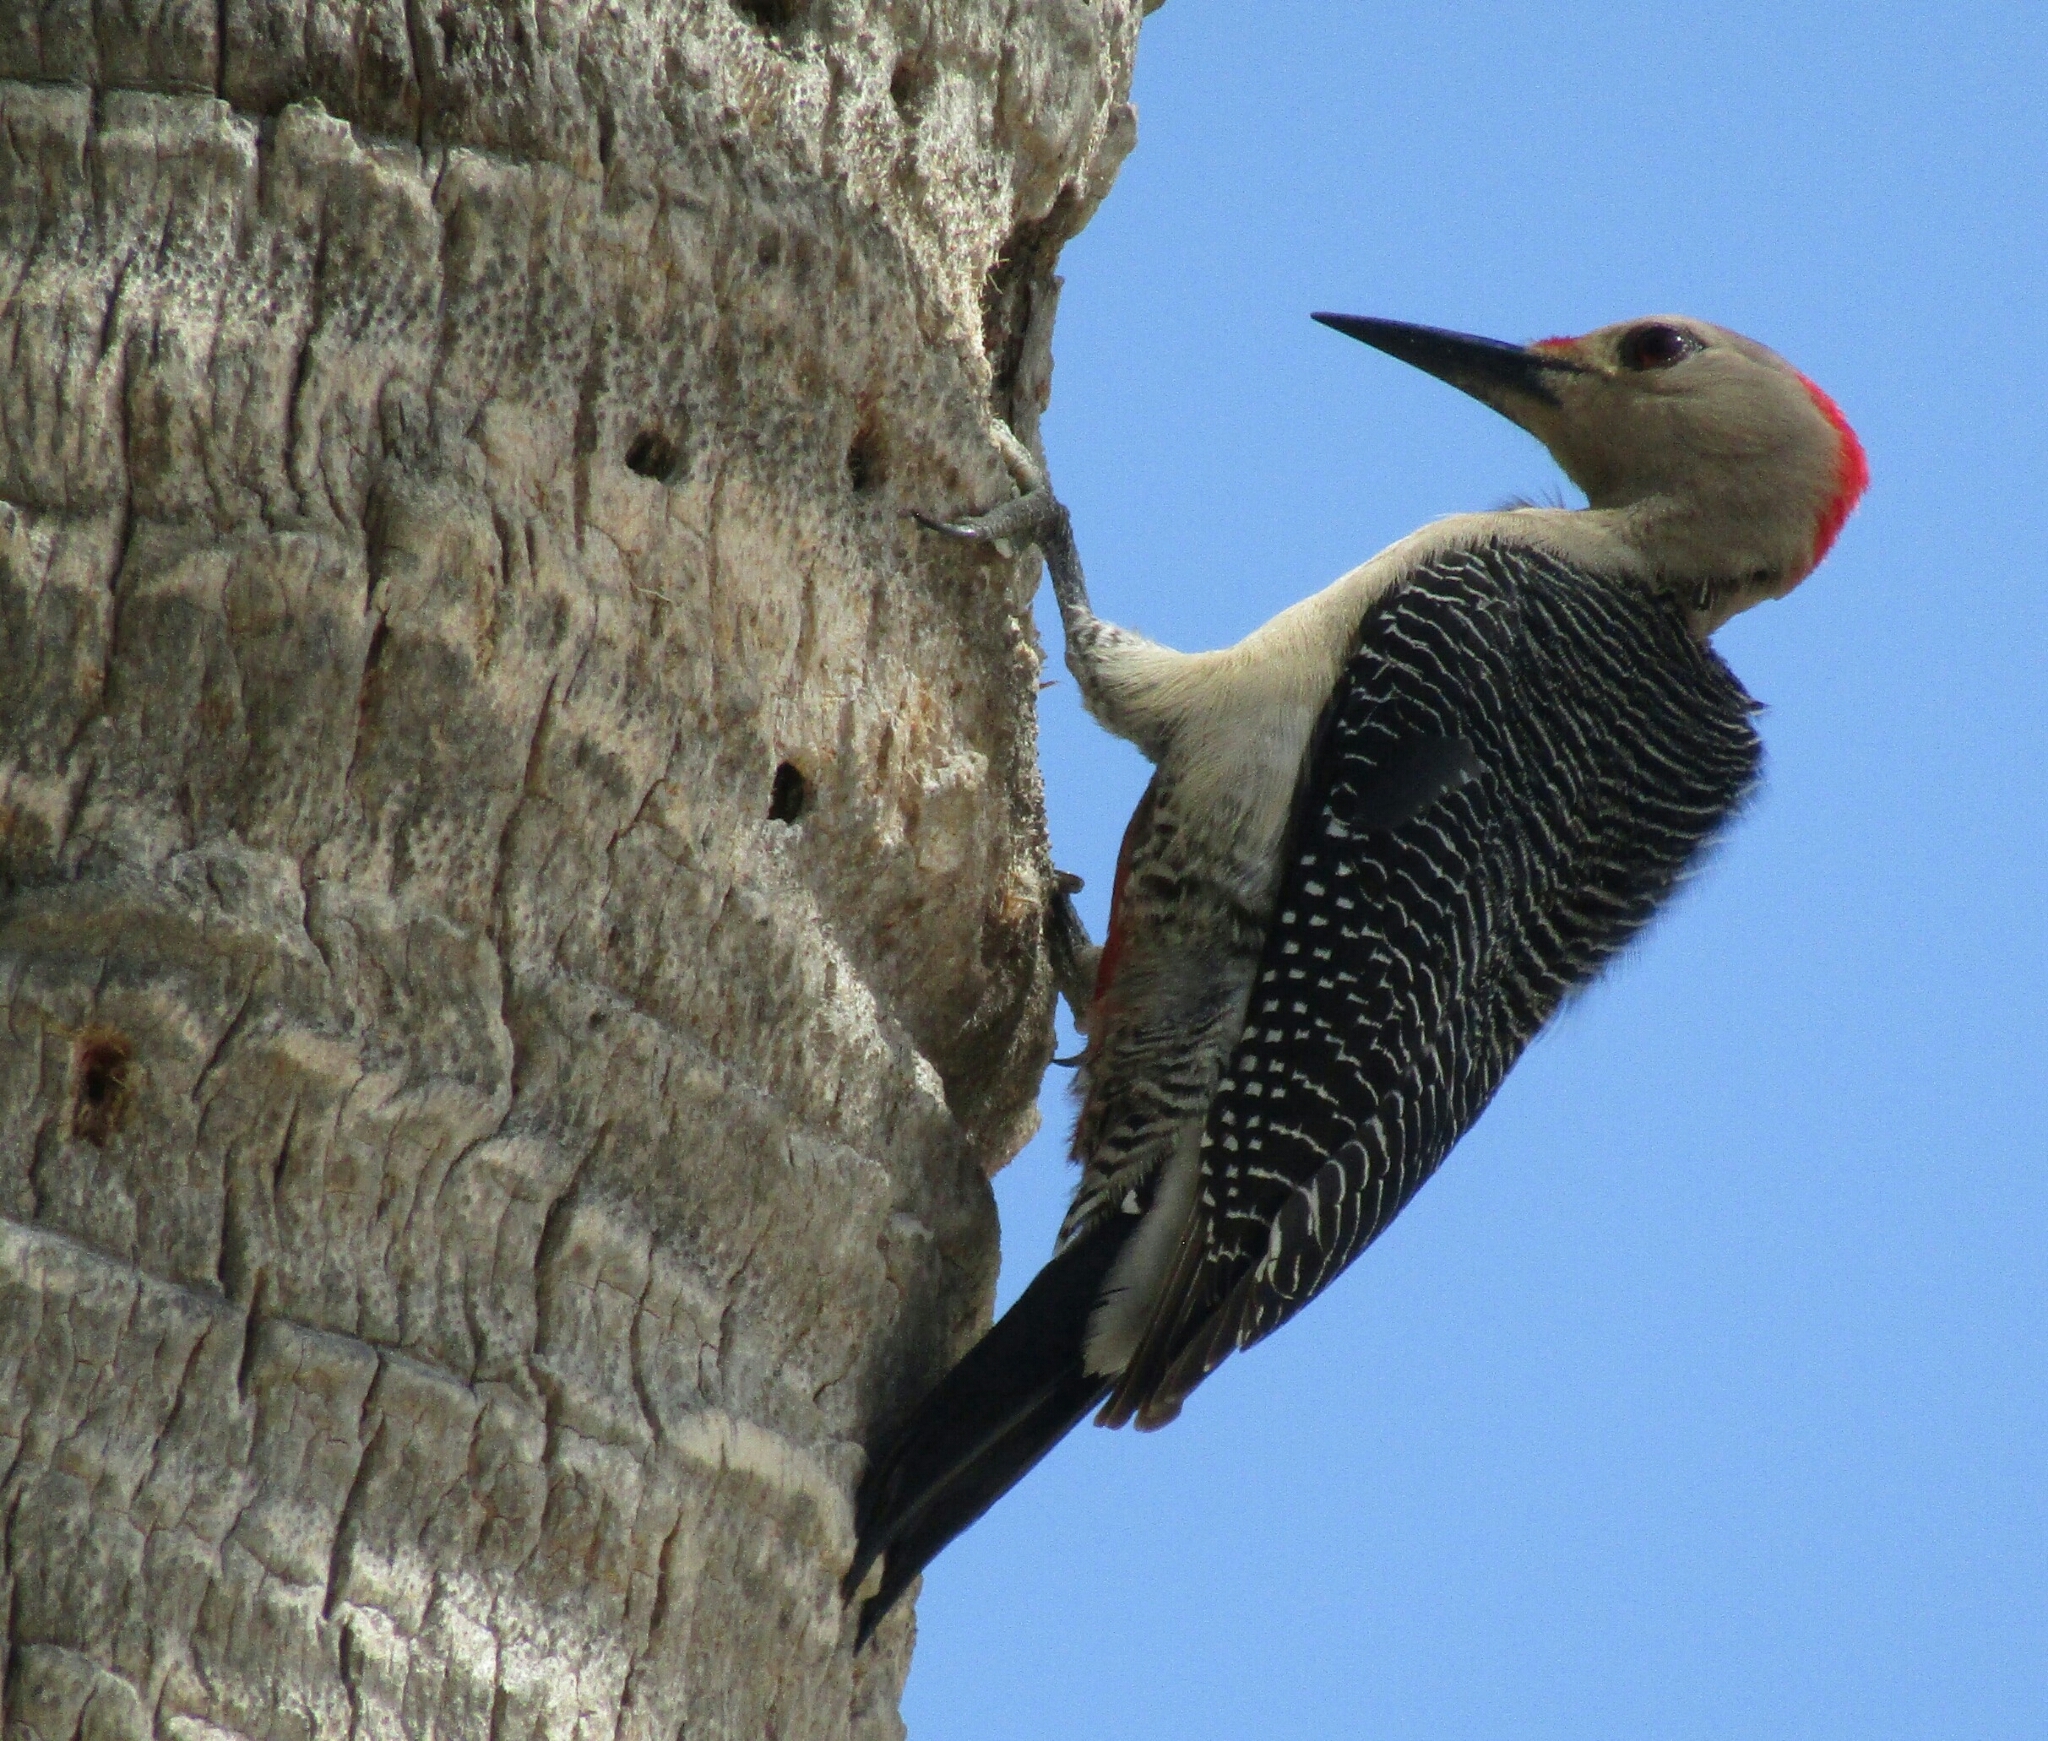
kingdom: Animalia
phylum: Chordata
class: Aves
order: Piciformes
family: Picidae
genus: Melanerpes
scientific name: Melanerpes santacruzi
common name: Velasquez's woodpecker
